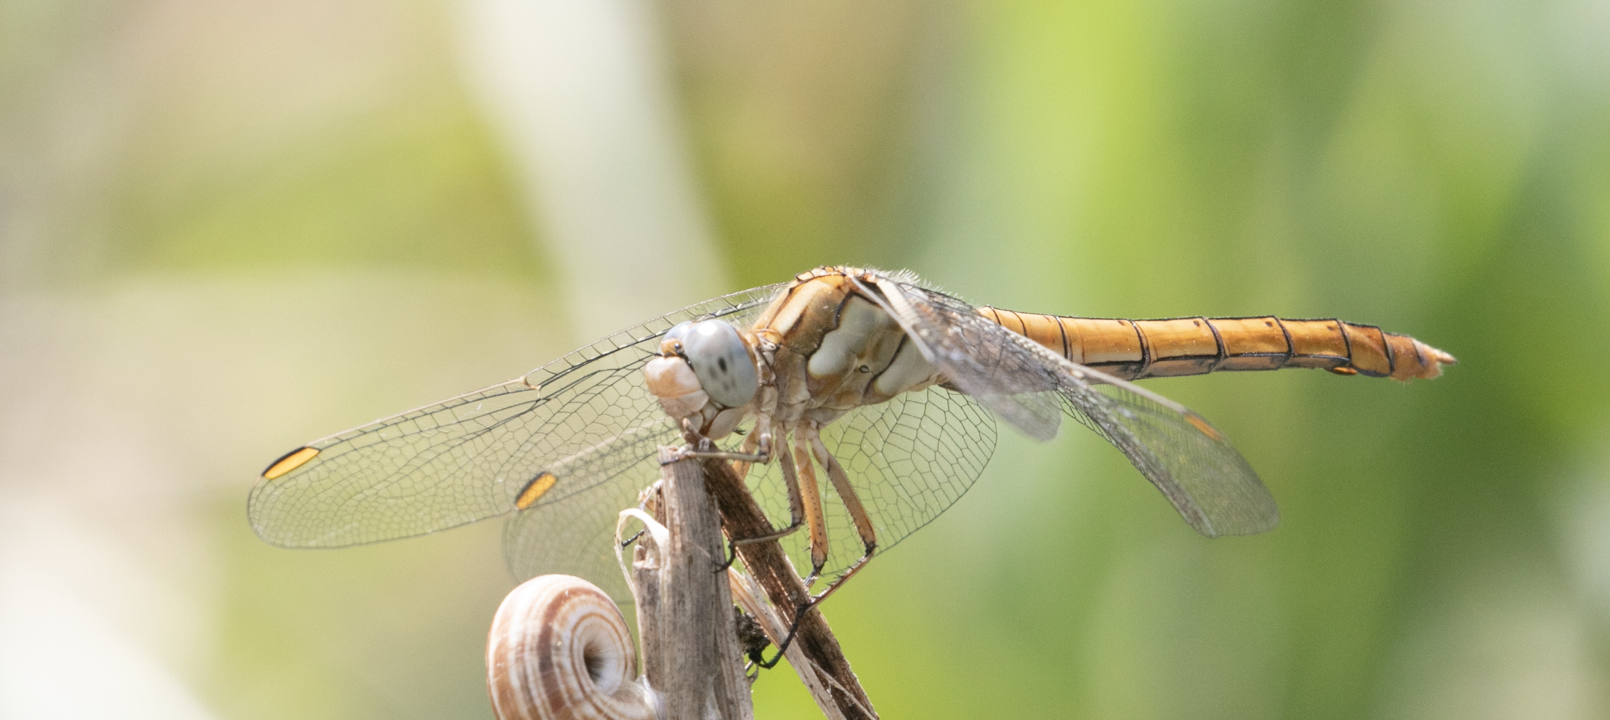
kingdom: Animalia
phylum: Arthropoda
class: Insecta
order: Odonata
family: Libellulidae
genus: Orthetrum
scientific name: Orthetrum brunneum
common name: Southern skimmer
